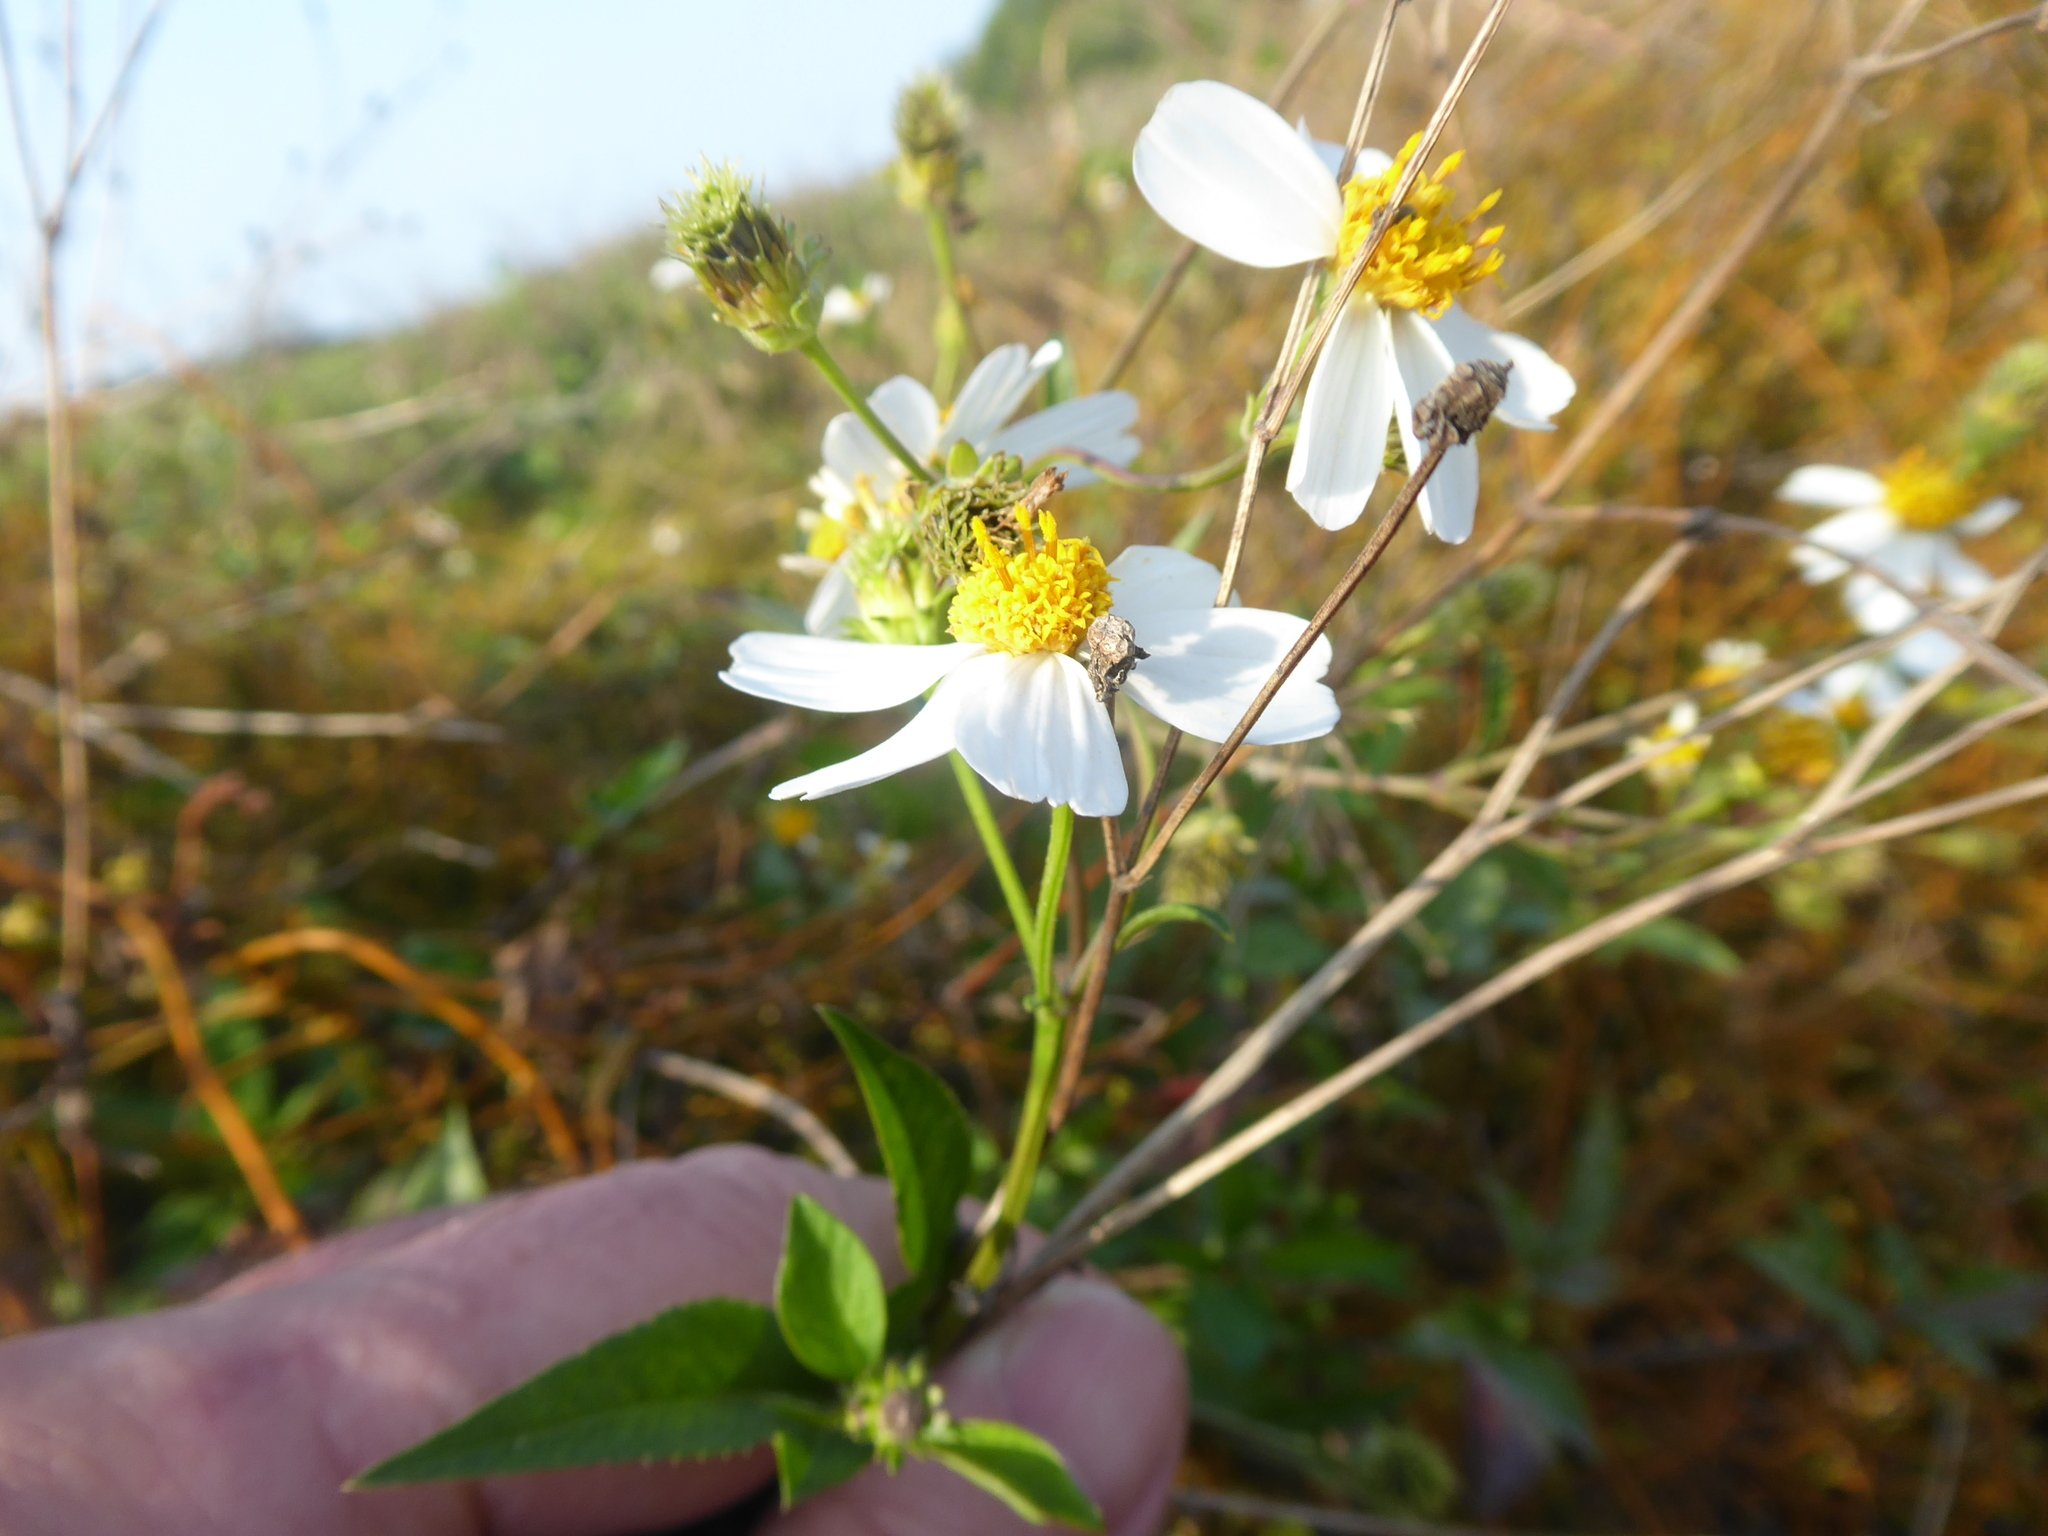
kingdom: Plantae
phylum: Tracheophyta
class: Magnoliopsida
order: Asterales
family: Asteraceae
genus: Bidens
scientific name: Bidens alba
